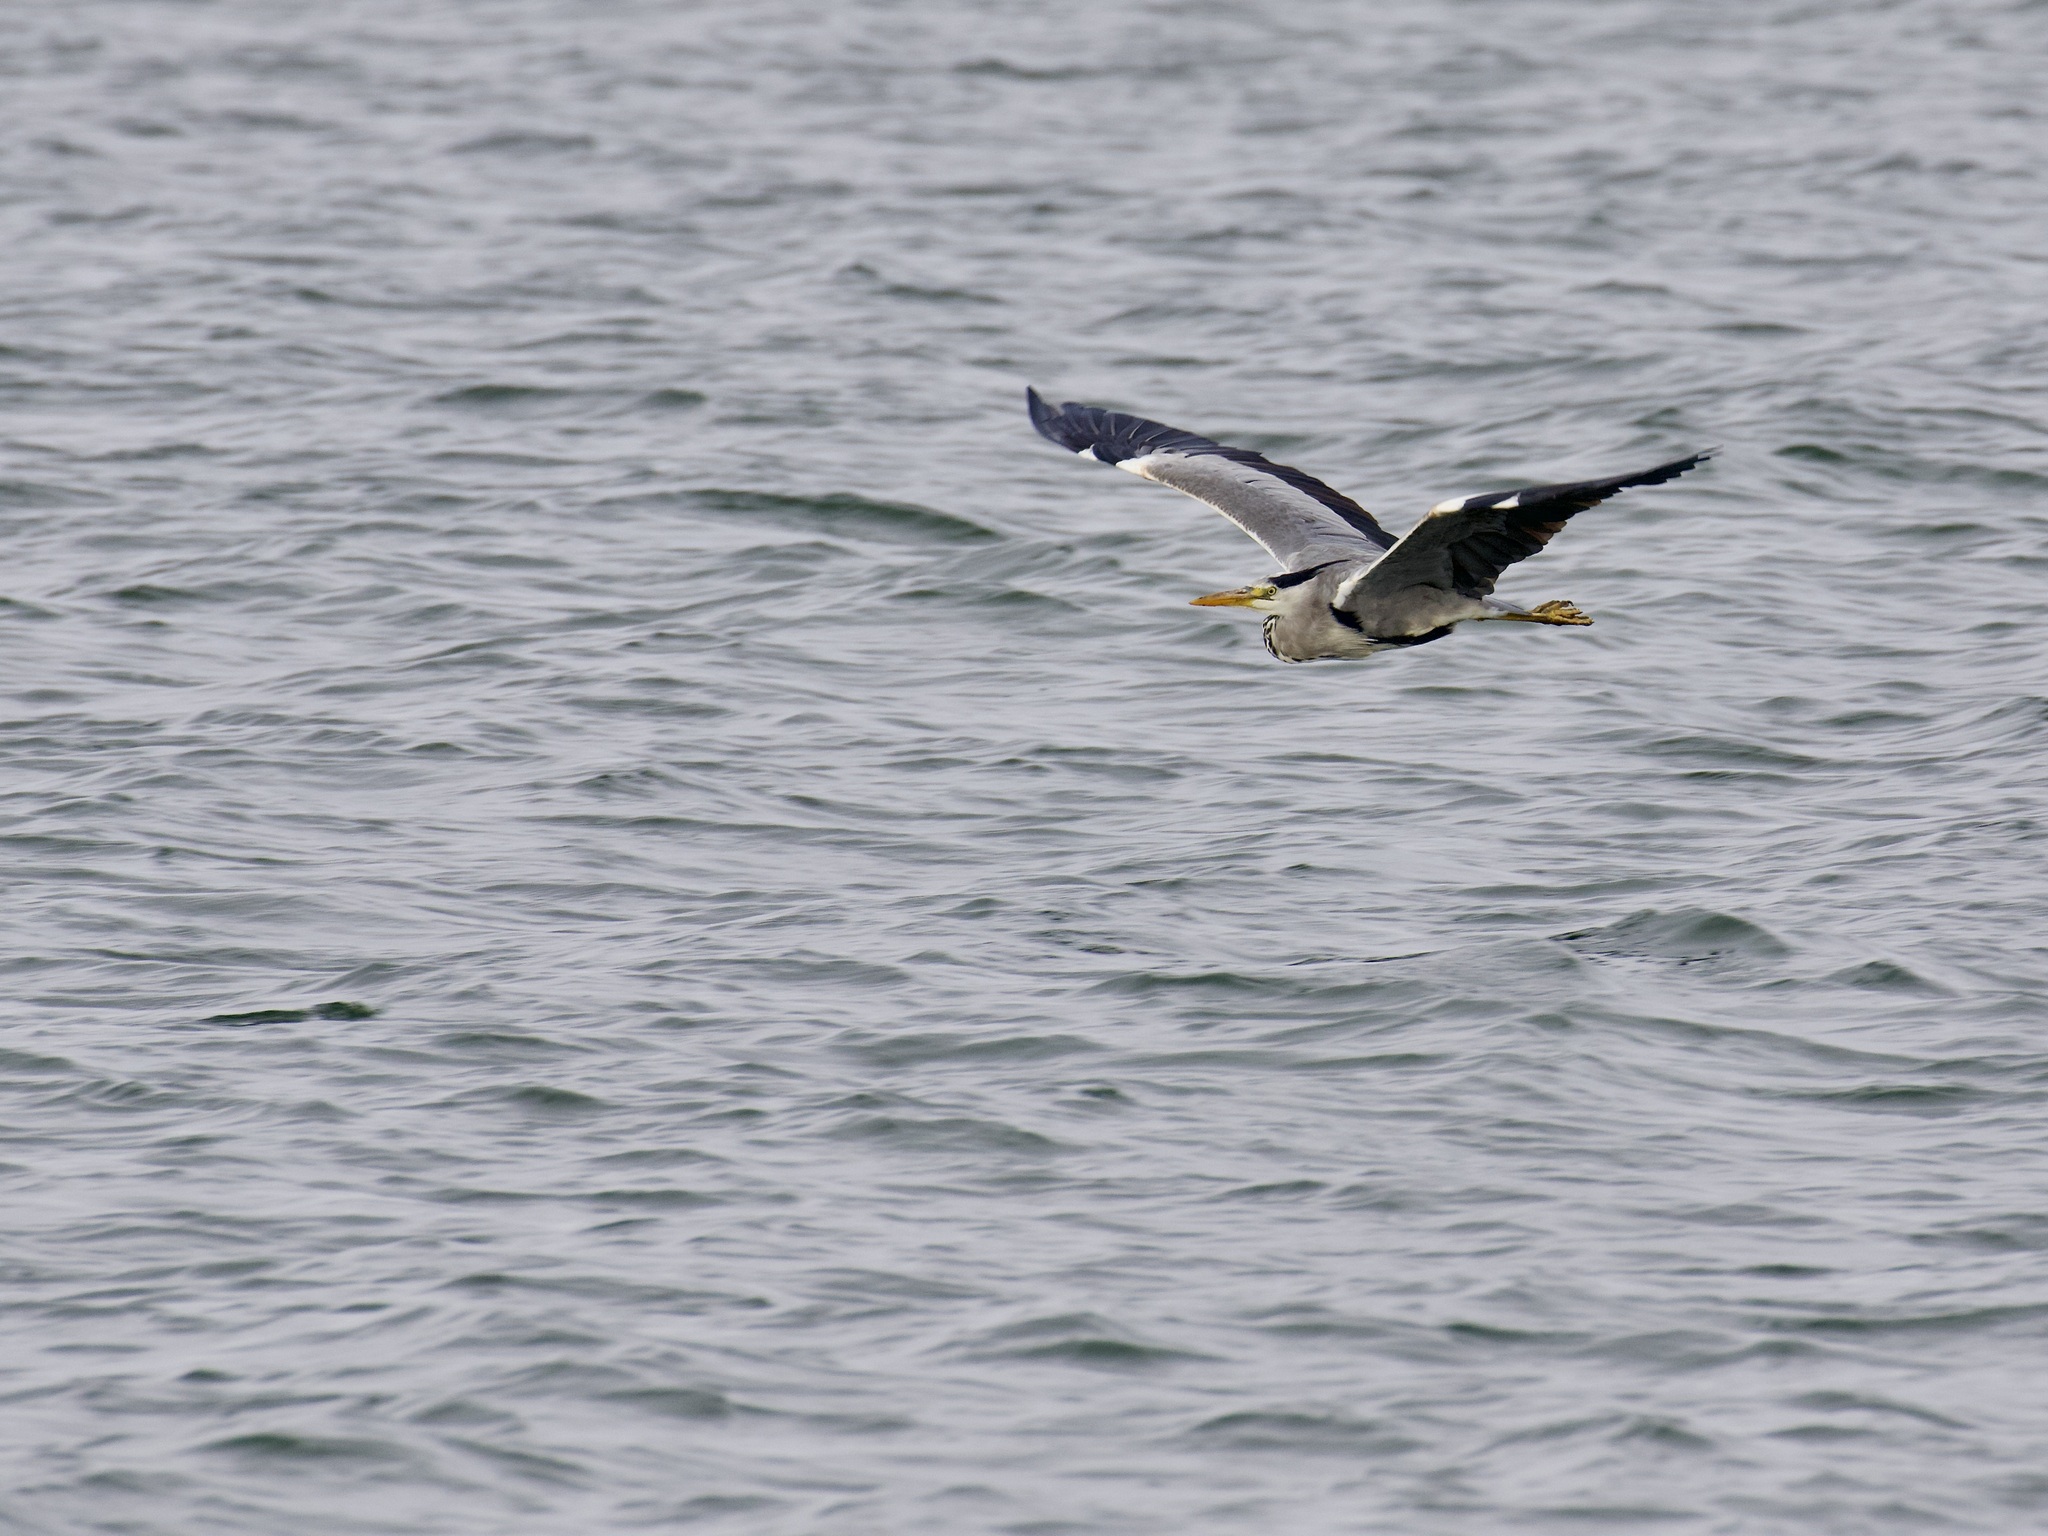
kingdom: Animalia
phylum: Chordata
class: Aves
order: Pelecaniformes
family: Ardeidae
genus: Ardea
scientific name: Ardea cinerea
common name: Grey heron
